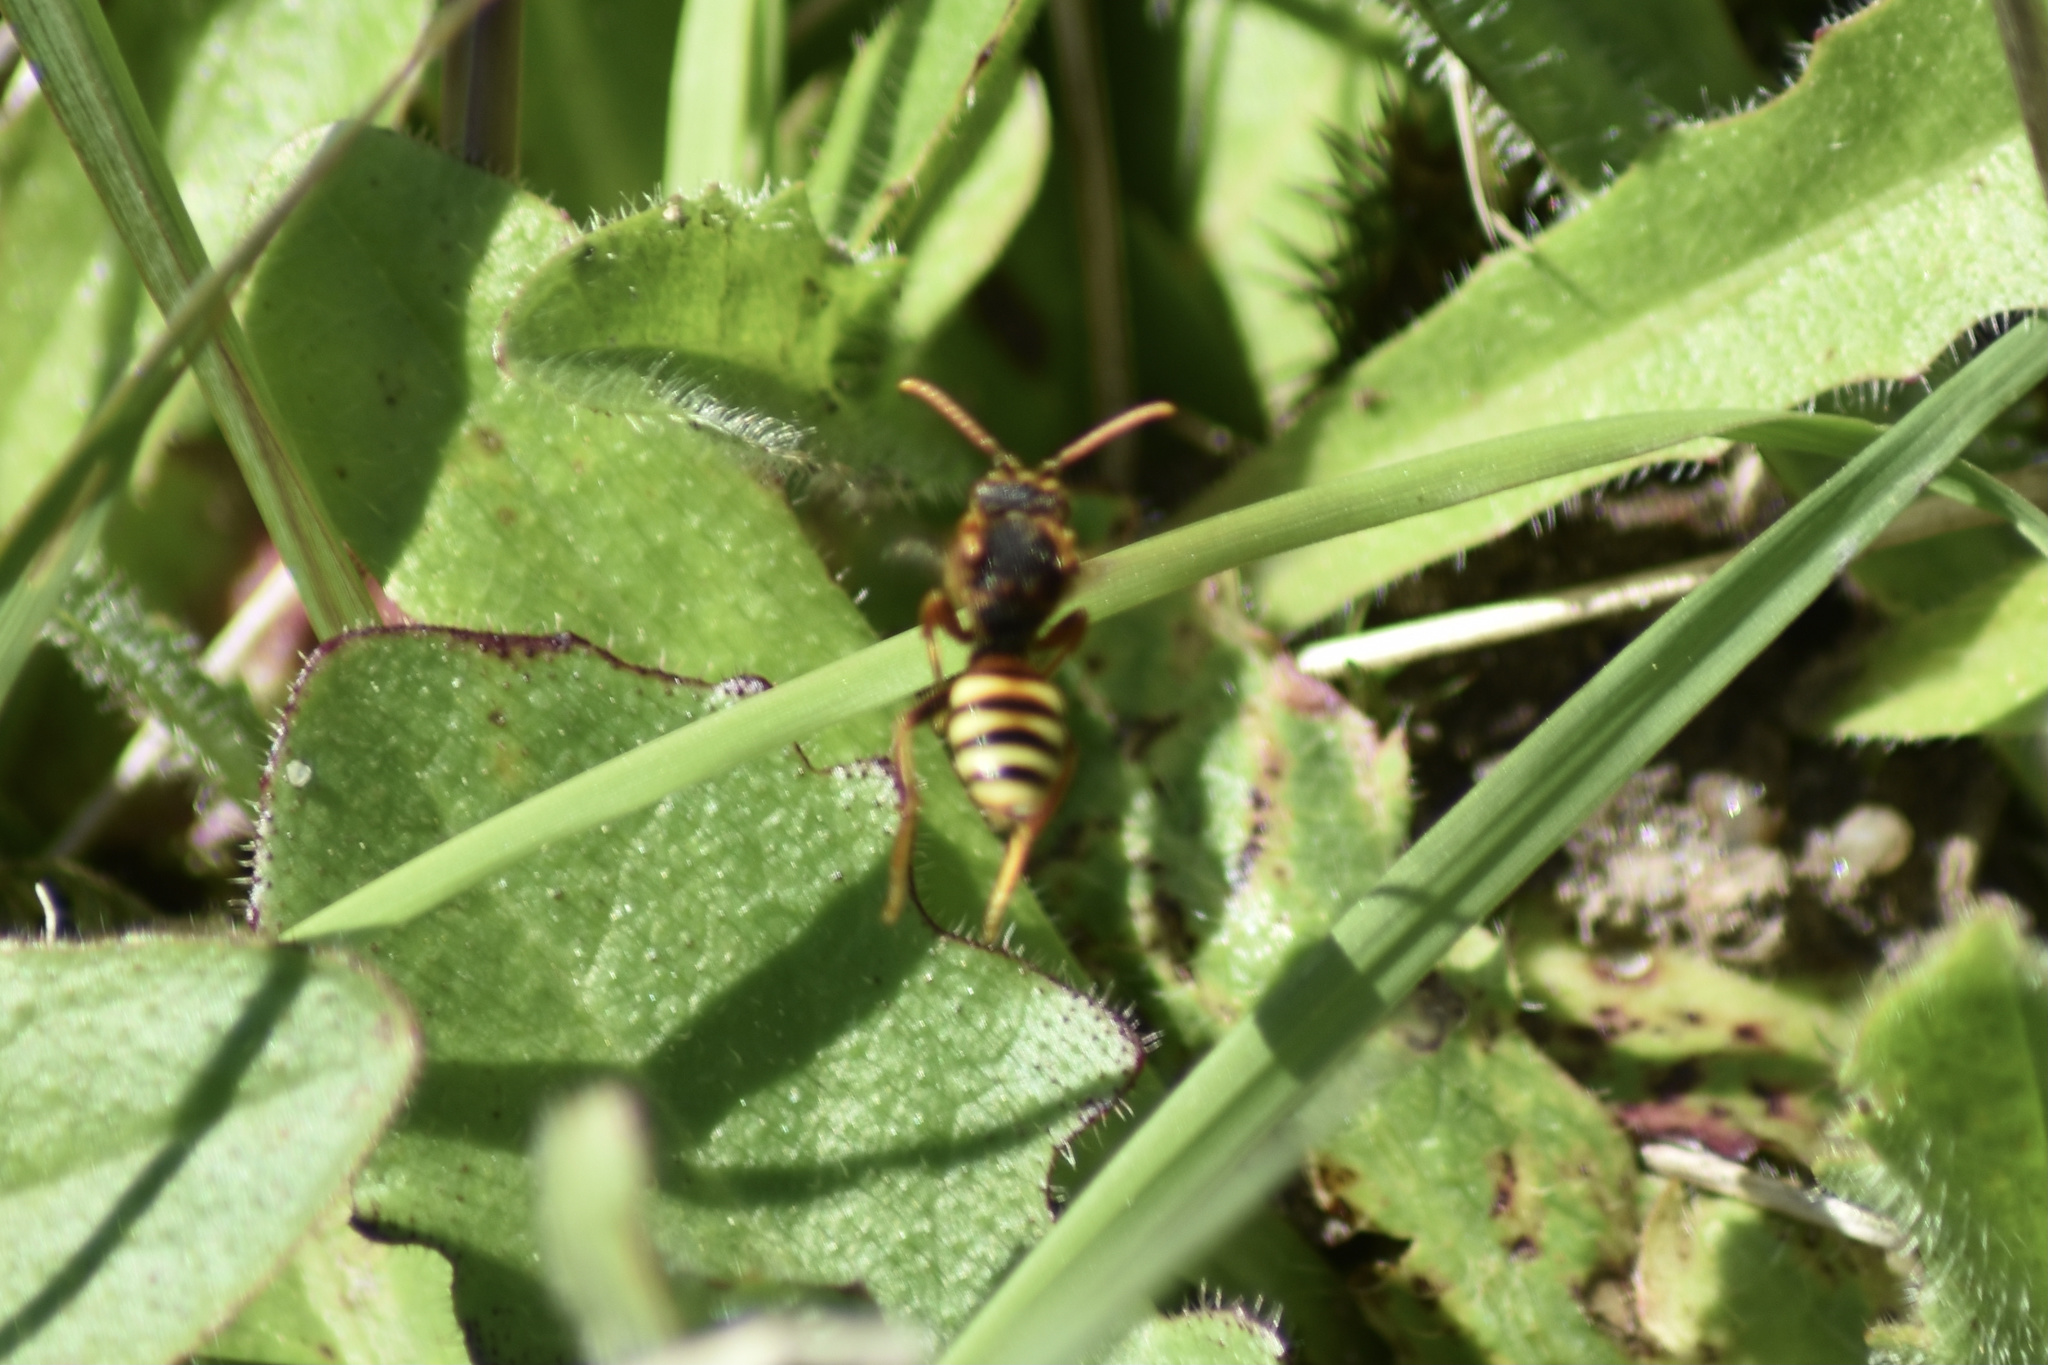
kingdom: Animalia
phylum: Arthropoda
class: Insecta
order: Hymenoptera
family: Apidae
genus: Nomada
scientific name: Nomada lathburiana
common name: Lathbury's nomad bee
